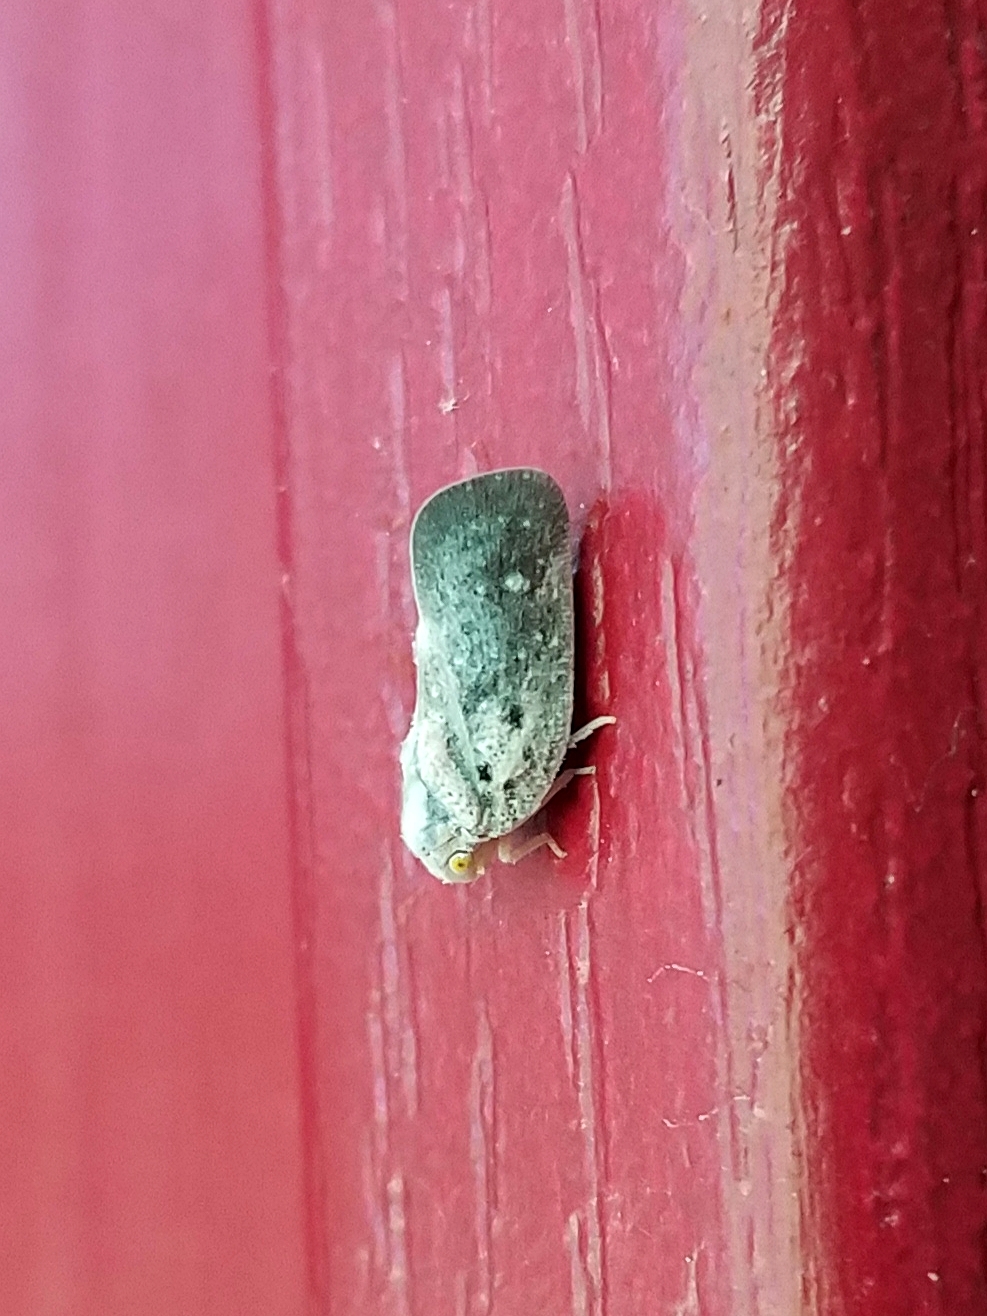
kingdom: Animalia
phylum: Arthropoda
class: Insecta
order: Hemiptera
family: Flatidae
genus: Metcalfa
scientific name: Metcalfa pruinosa
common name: Citrus flatid planthopper
